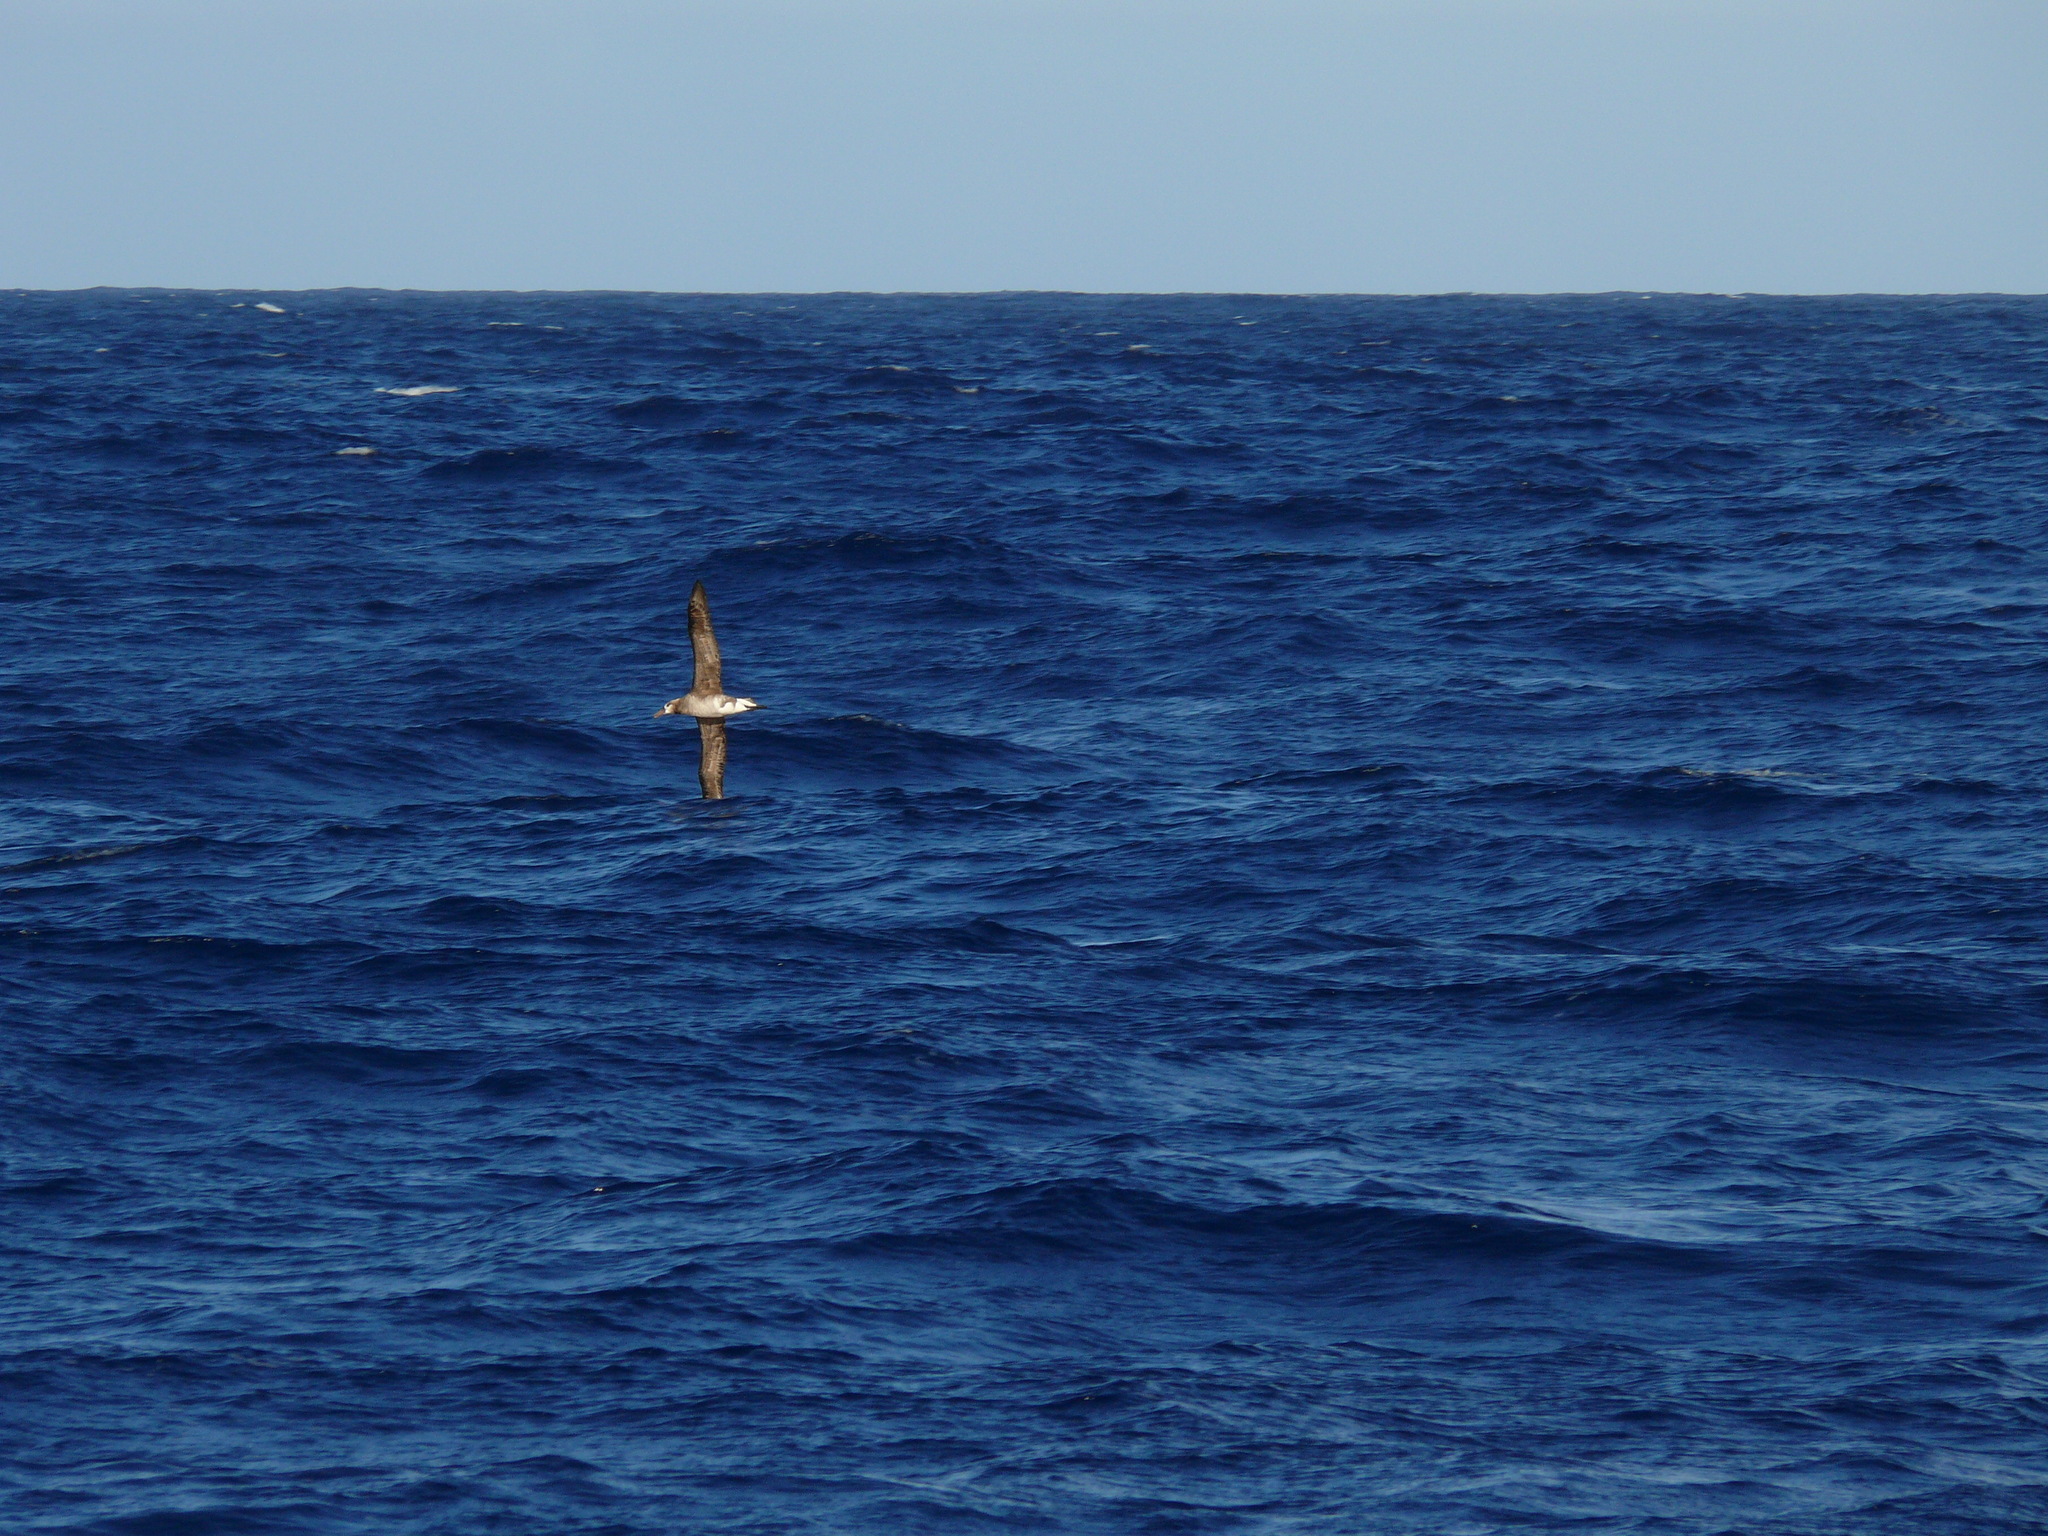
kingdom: Animalia
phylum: Chordata
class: Aves
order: Procellariiformes
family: Diomedeidae
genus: Phoebastria
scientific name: Phoebastria
